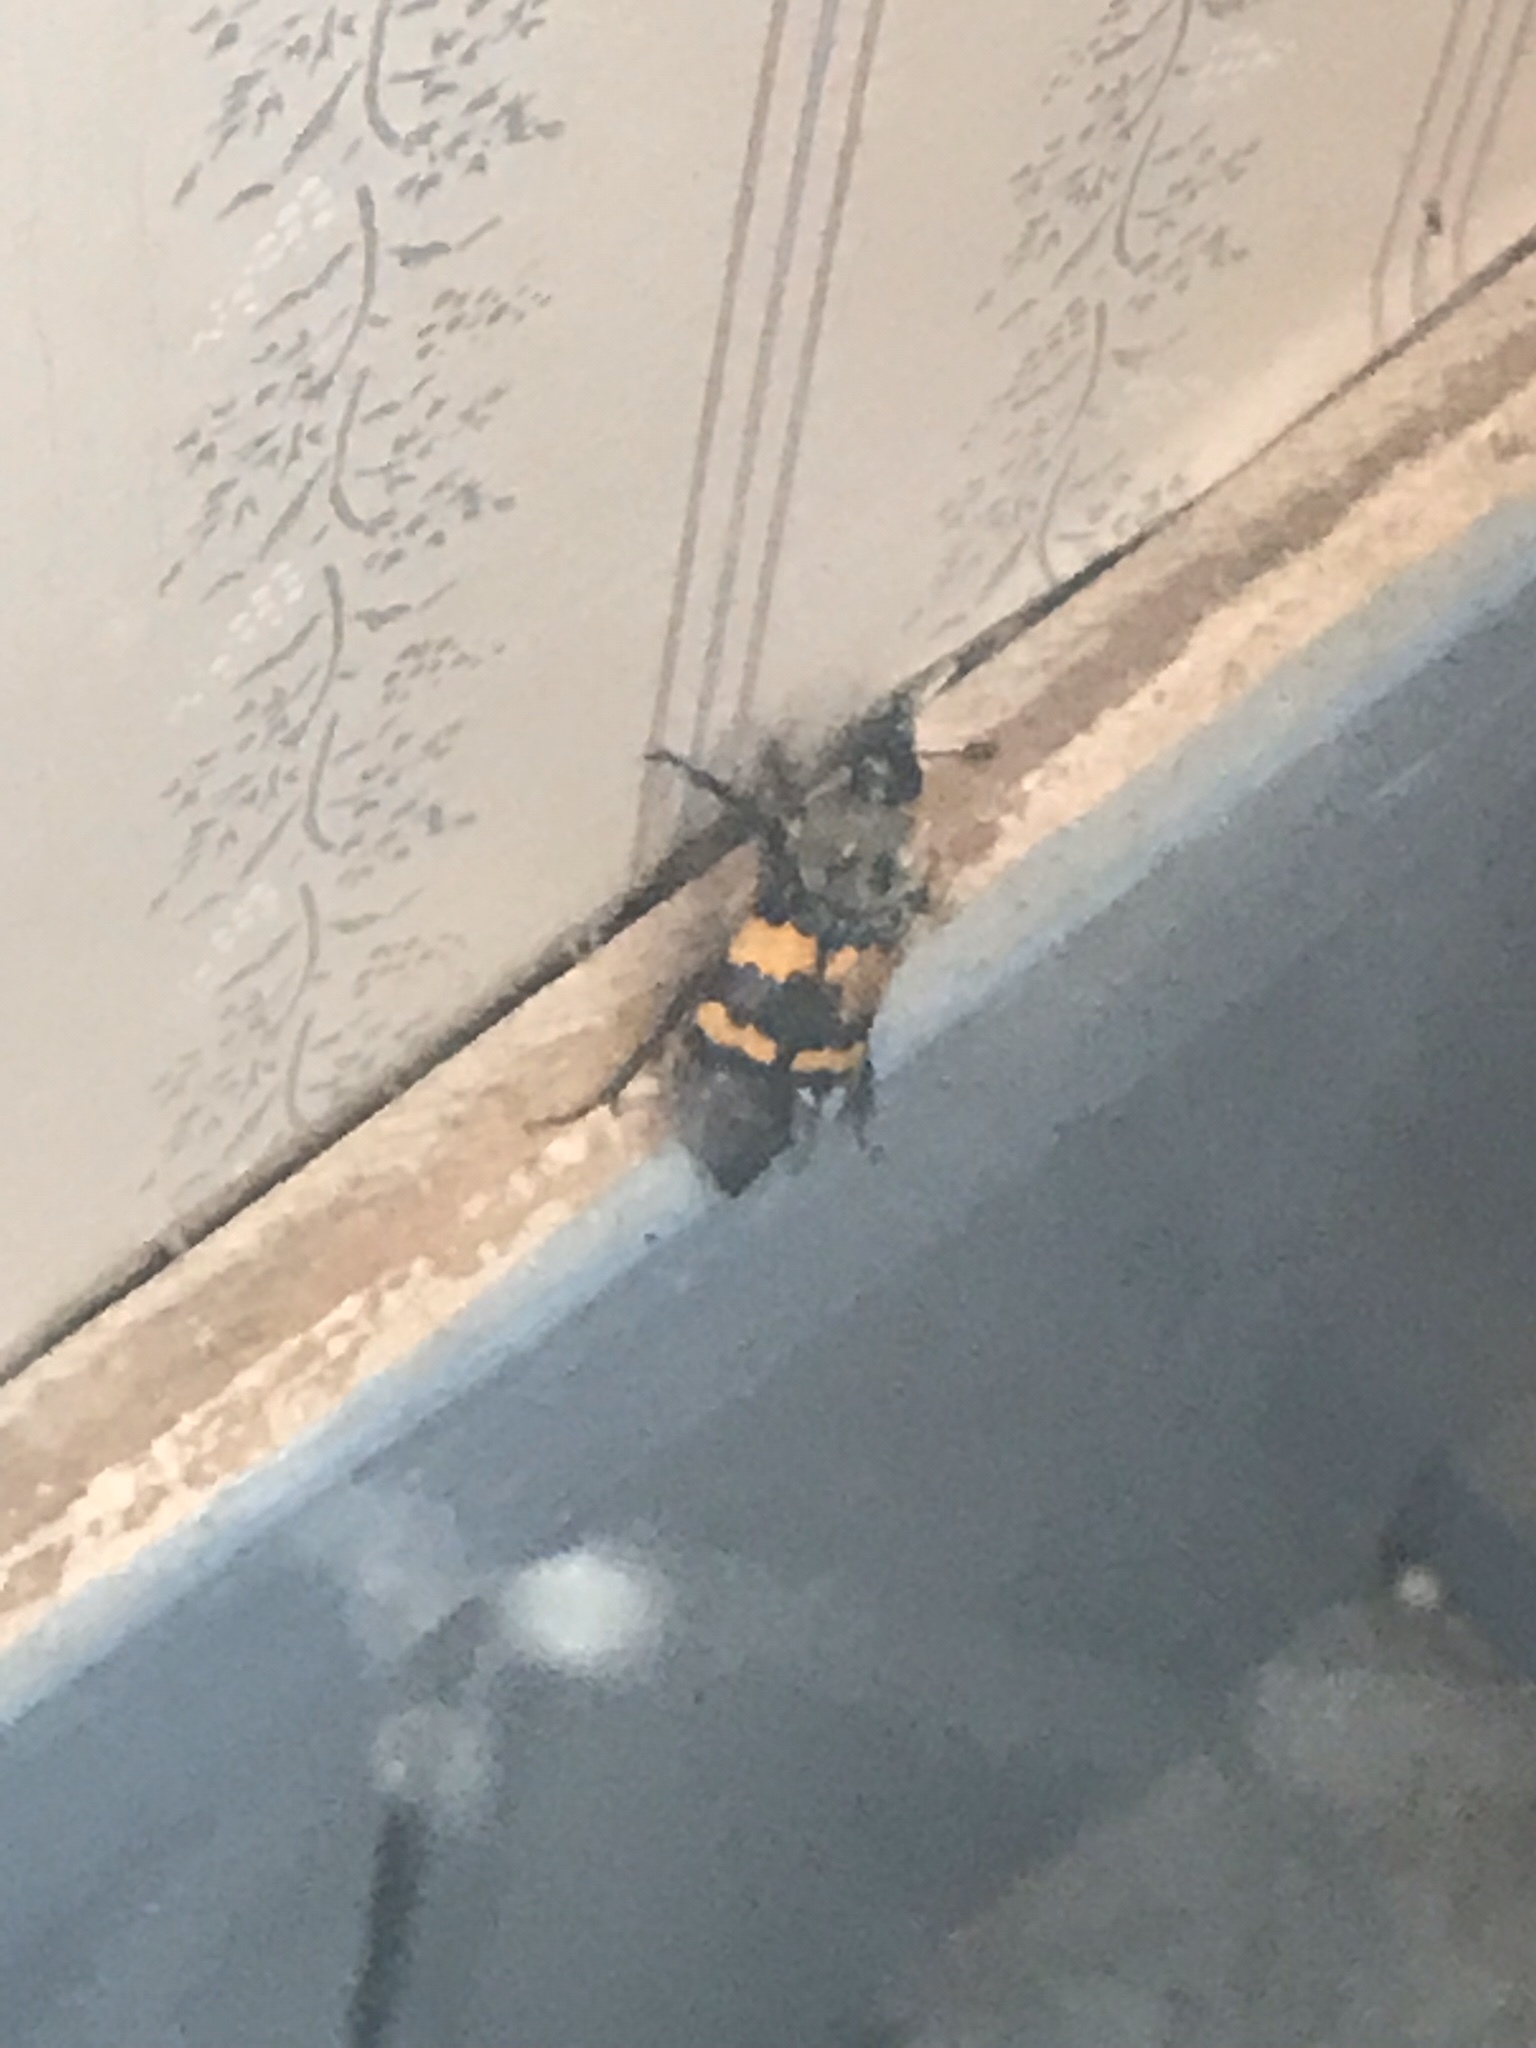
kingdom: Animalia
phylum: Arthropoda
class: Insecta
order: Coleoptera
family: Staphylinidae
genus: Nicrophorus
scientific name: Nicrophorus tomentosus
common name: Tomentose burying beetle
